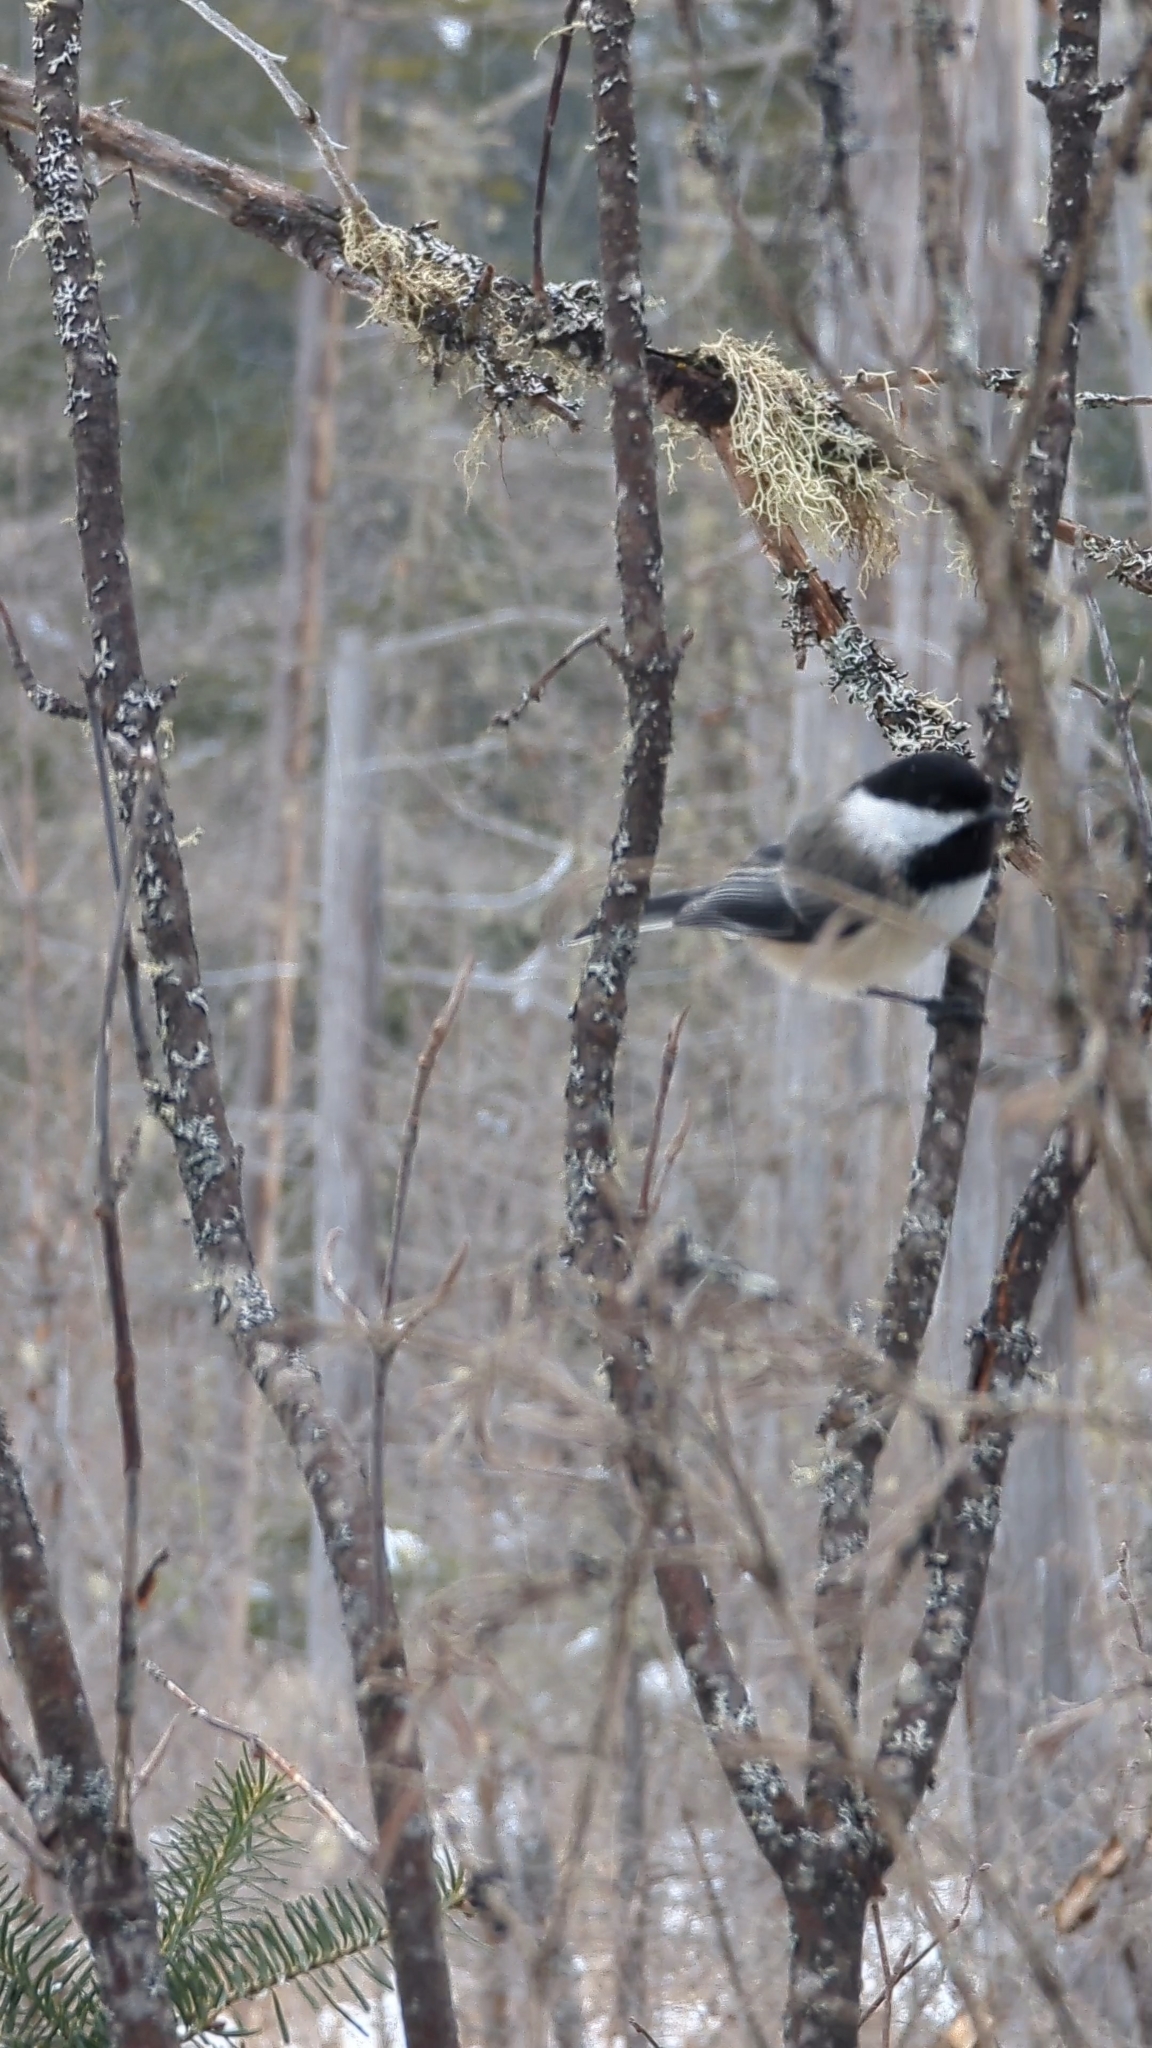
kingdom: Animalia
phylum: Chordata
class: Aves
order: Passeriformes
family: Paridae
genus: Poecile
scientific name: Poecile atricapillus
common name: Black-capped chickadee
